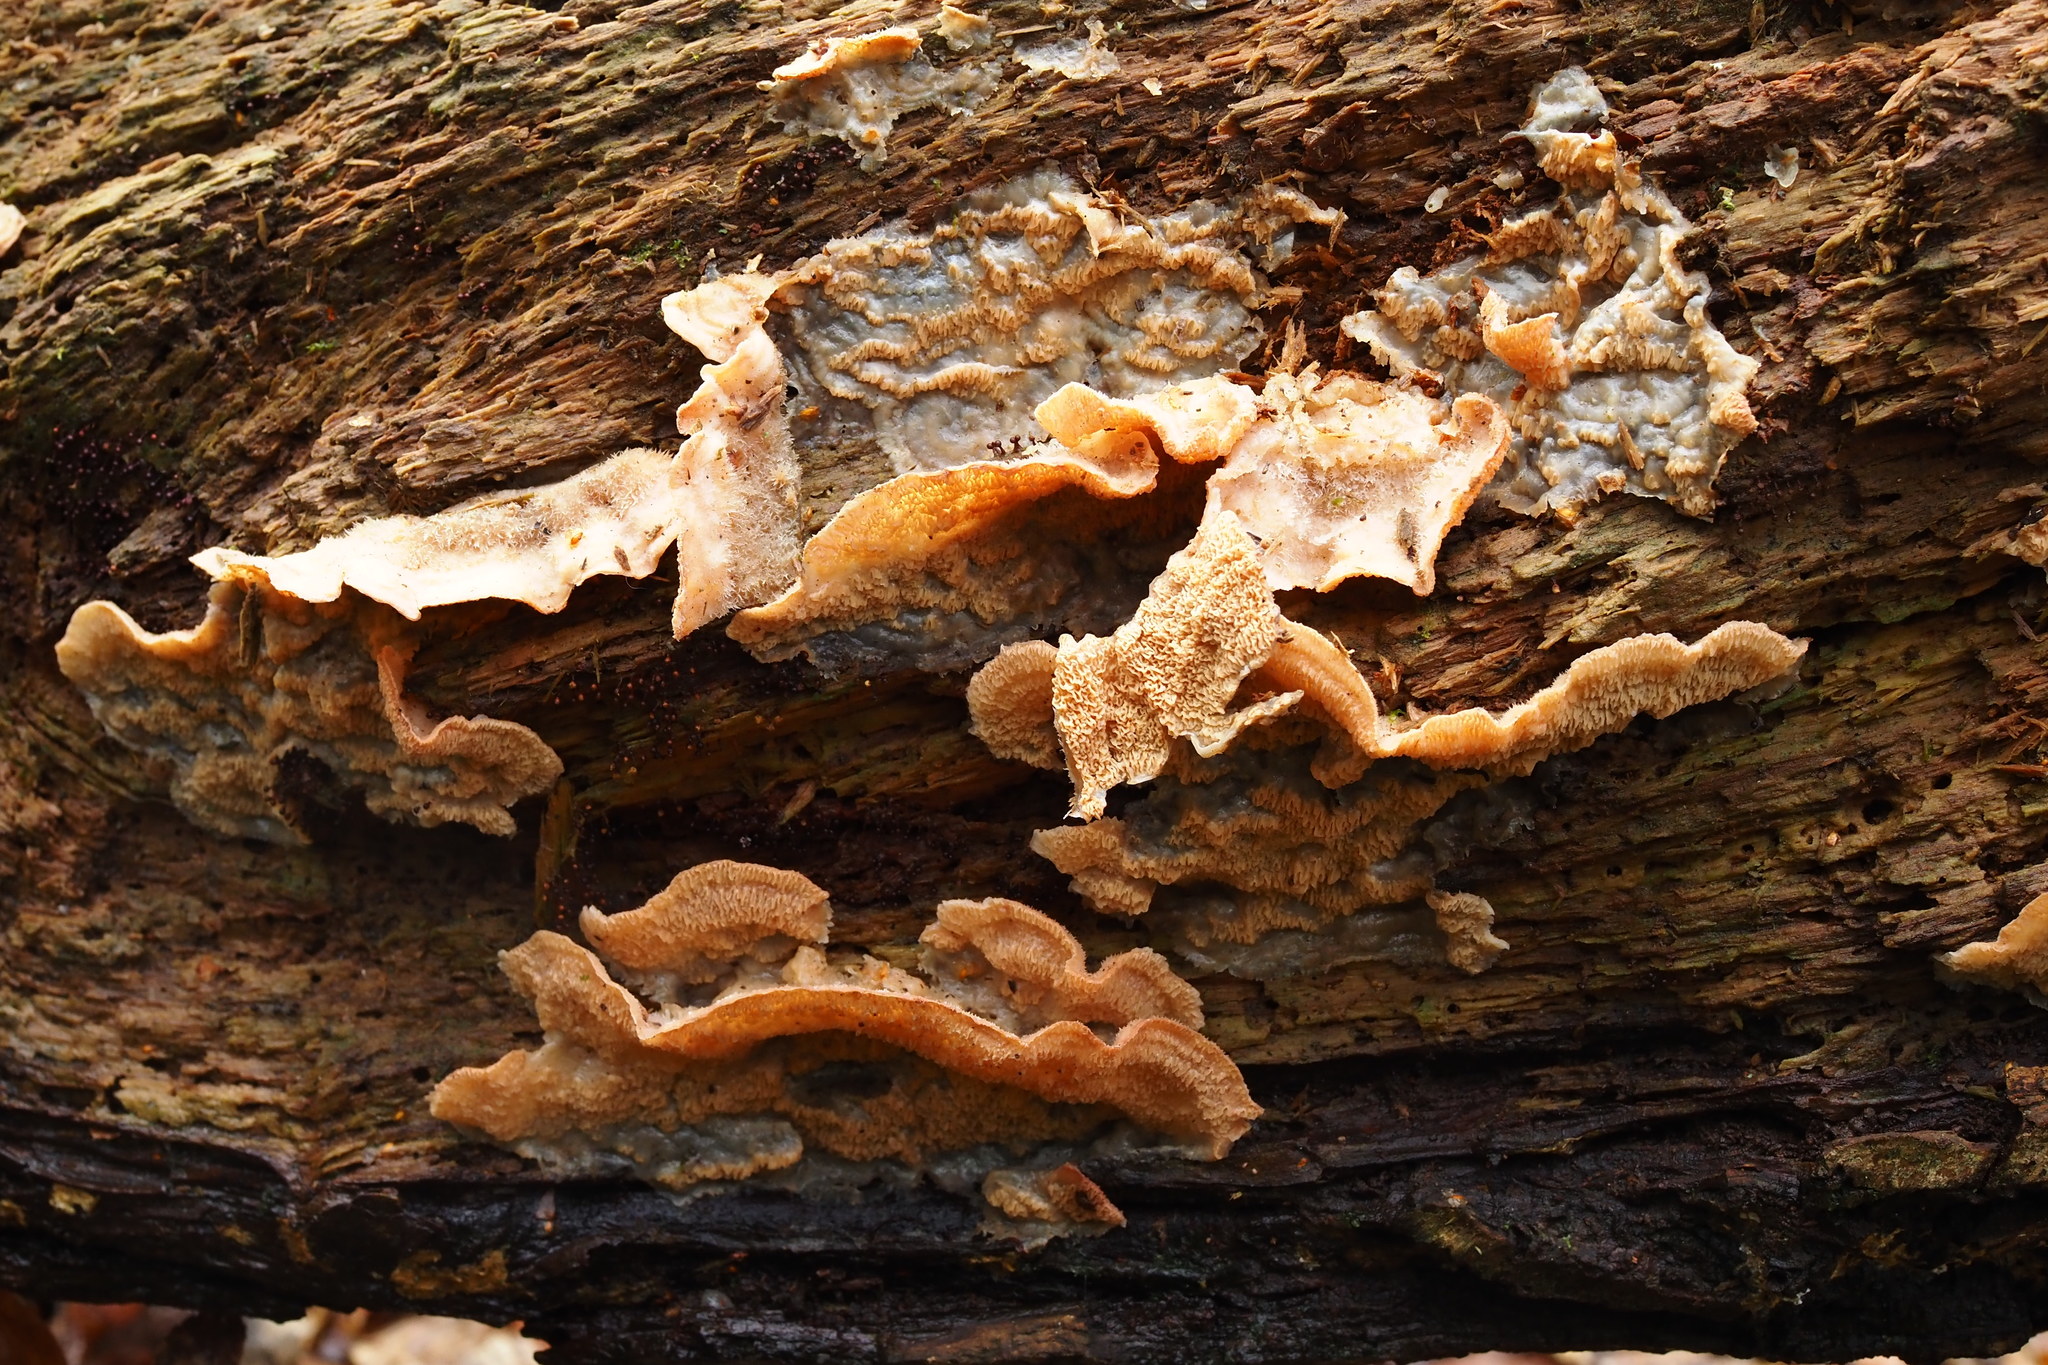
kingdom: Fungi
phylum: Basidiomycota
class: Agaricomycetes
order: Polyporales
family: Meruliaceae
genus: Phlebia
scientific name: Phlebia tremellosa
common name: Jelly rot
